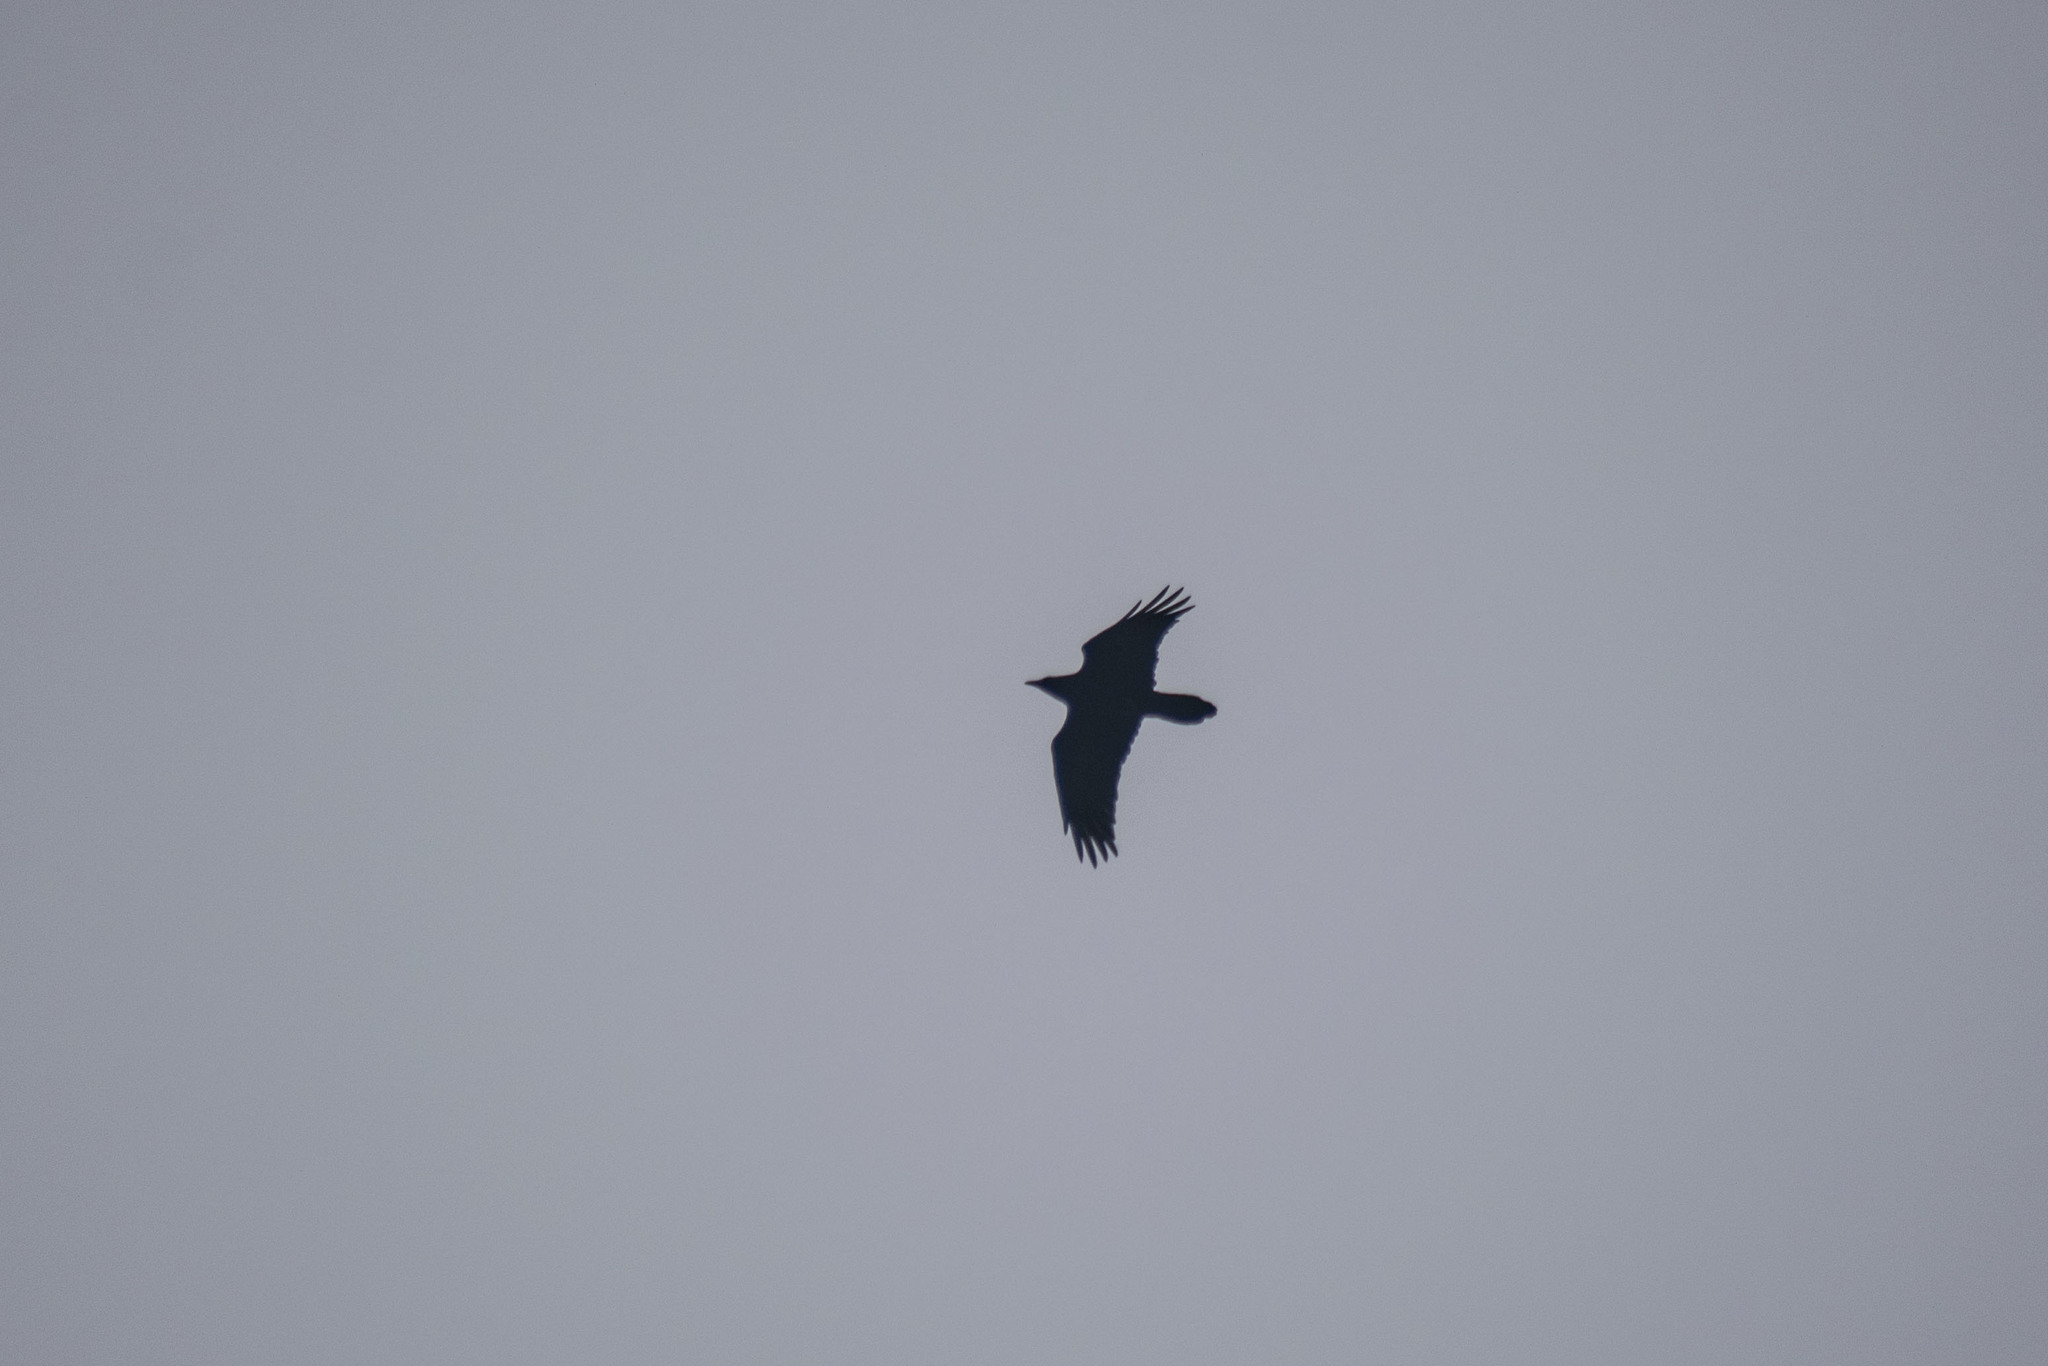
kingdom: Animalia
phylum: Chordata
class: Aves
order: Passeriformes
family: Corvidae
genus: Corvus
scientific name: Corvus corax
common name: Common raven
